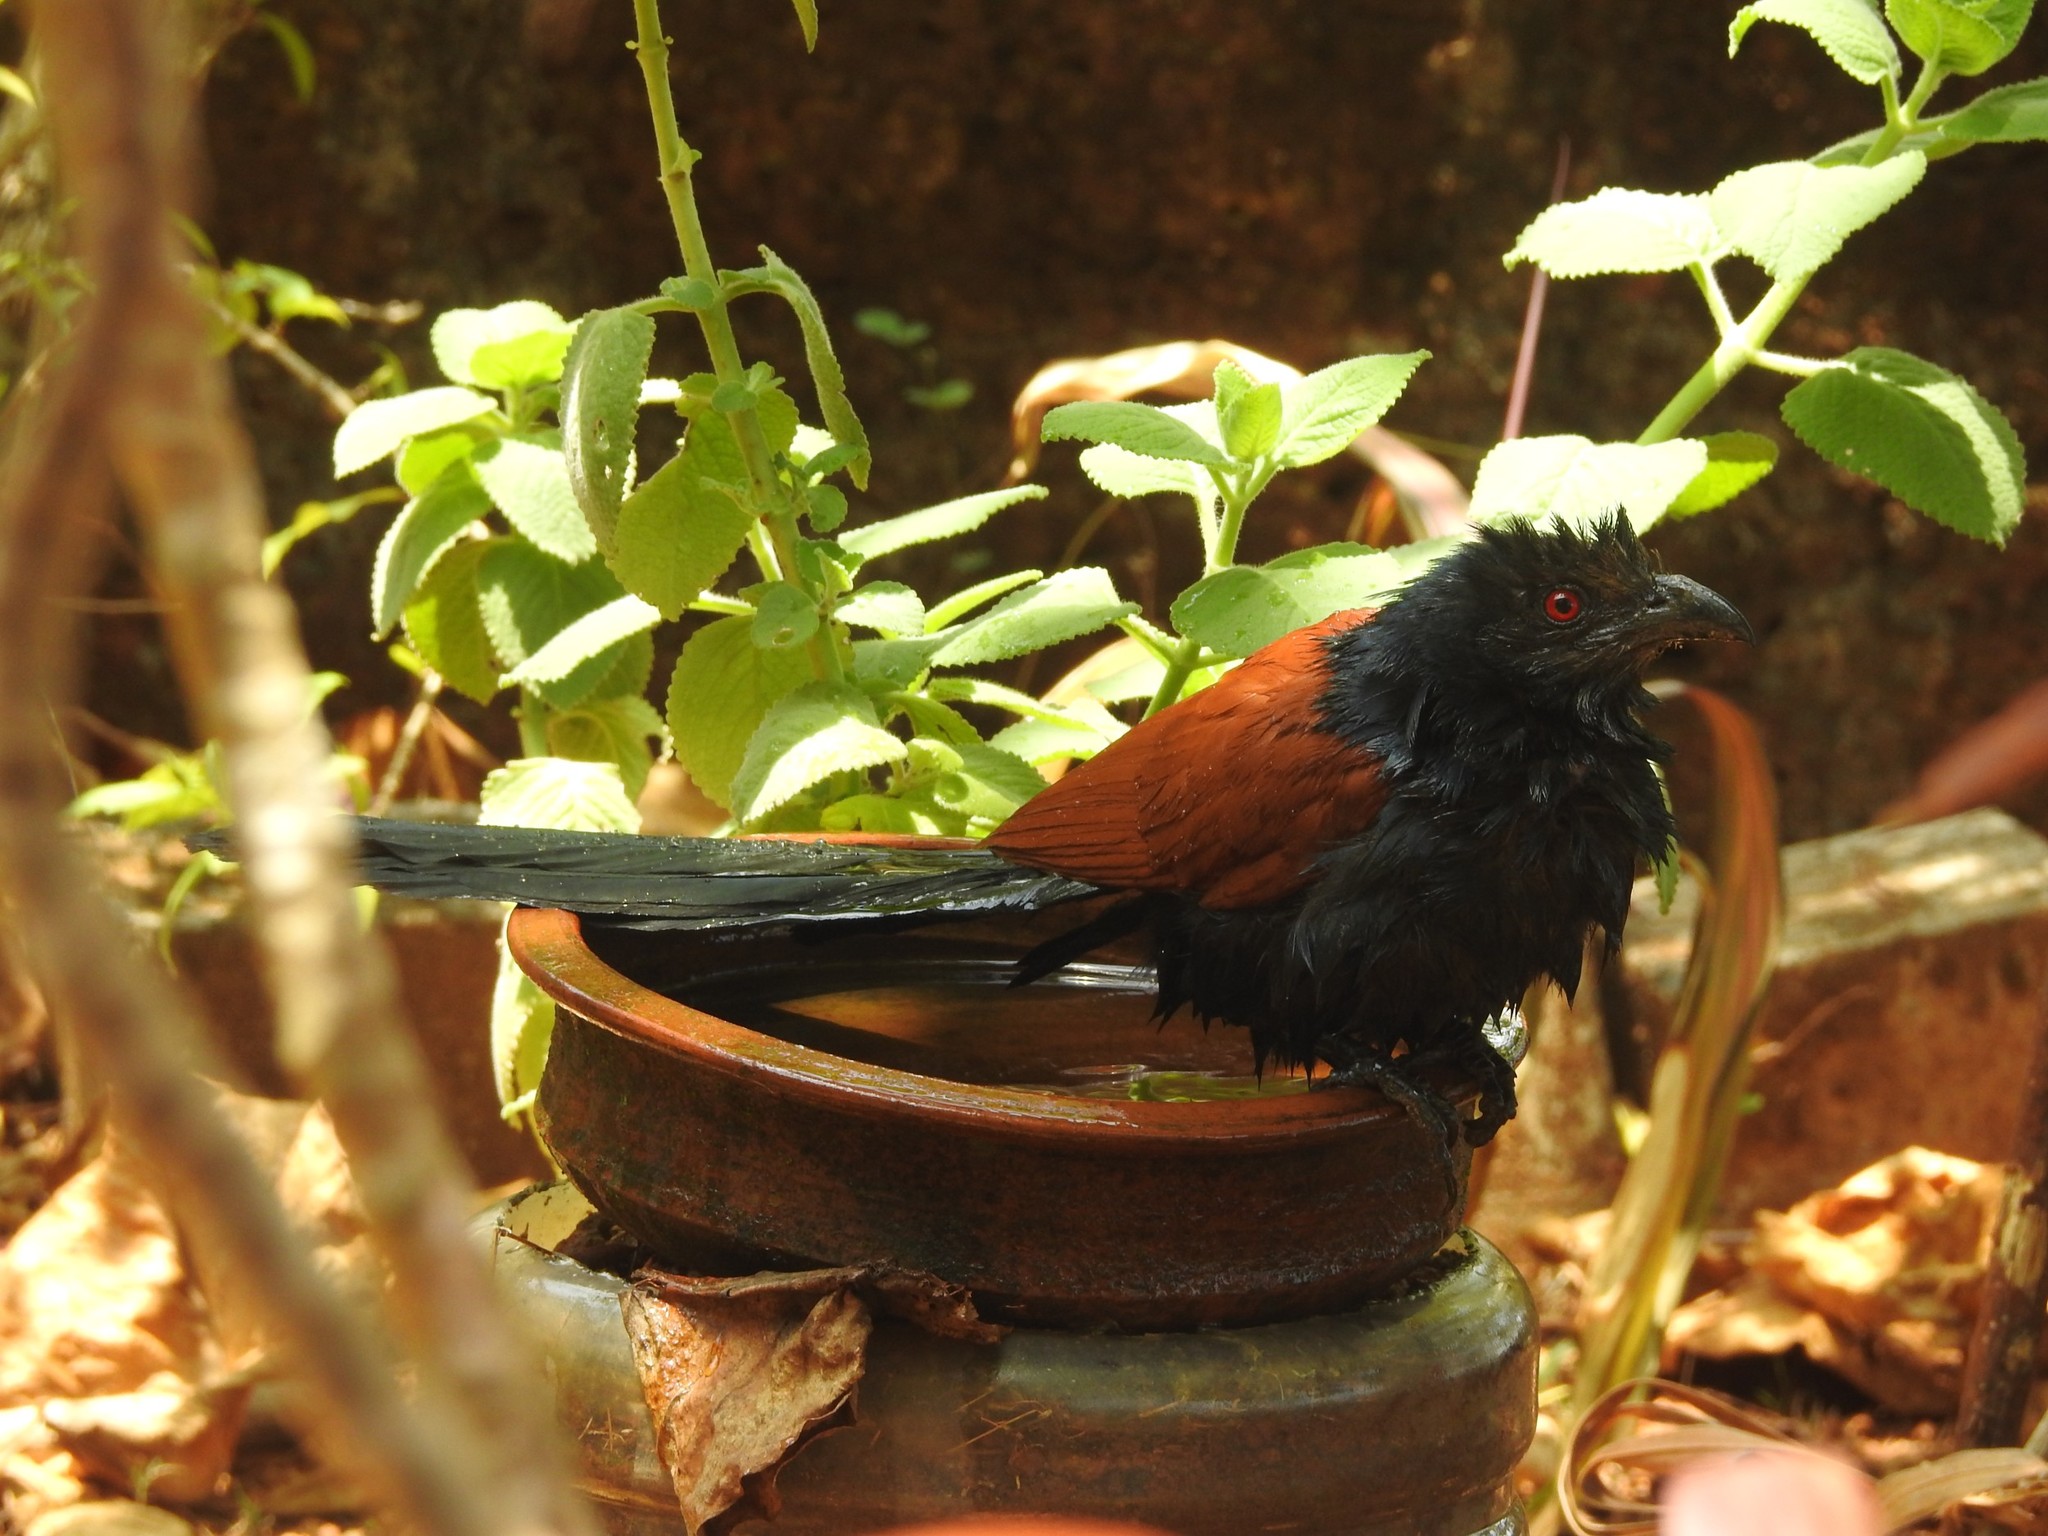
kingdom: Animalia
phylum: Chordata
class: Aves
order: Cuculiformes
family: Cuculidae
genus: Centropus
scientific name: Centropus sinensis
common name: Greater coucal
